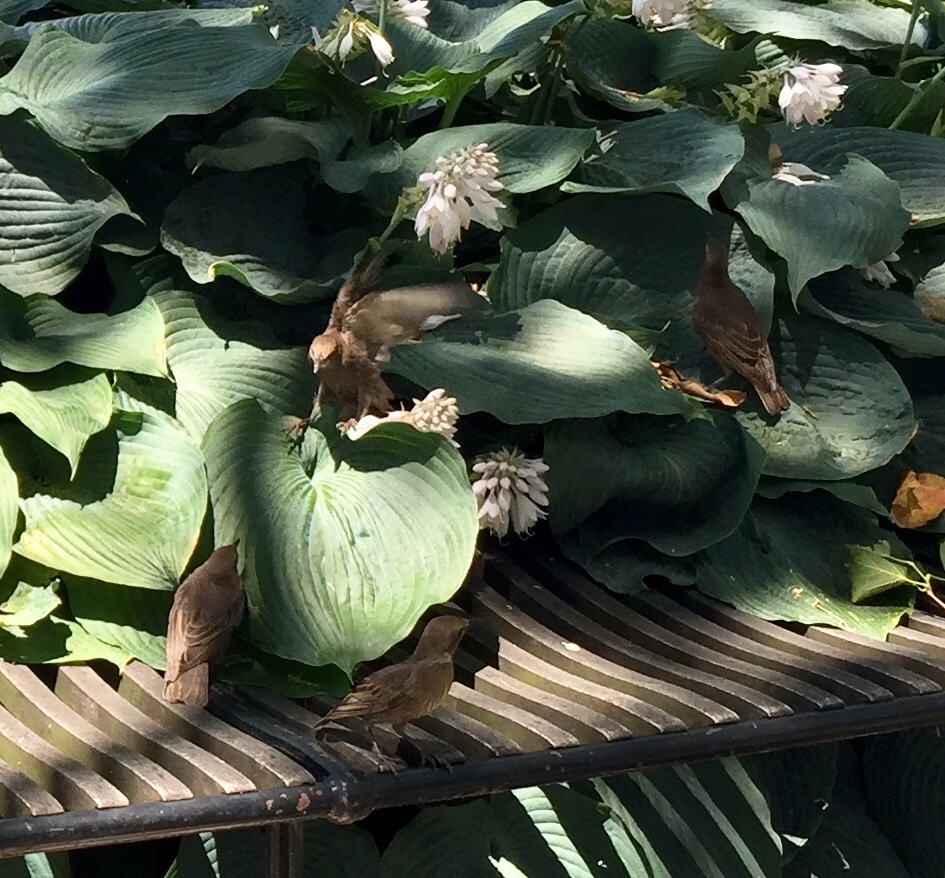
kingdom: Animalia
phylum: Chordata
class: Aves
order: Passeriformes
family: Sturnidae
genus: Sturnus
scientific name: Sturnus vulgaris
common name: Common starling
